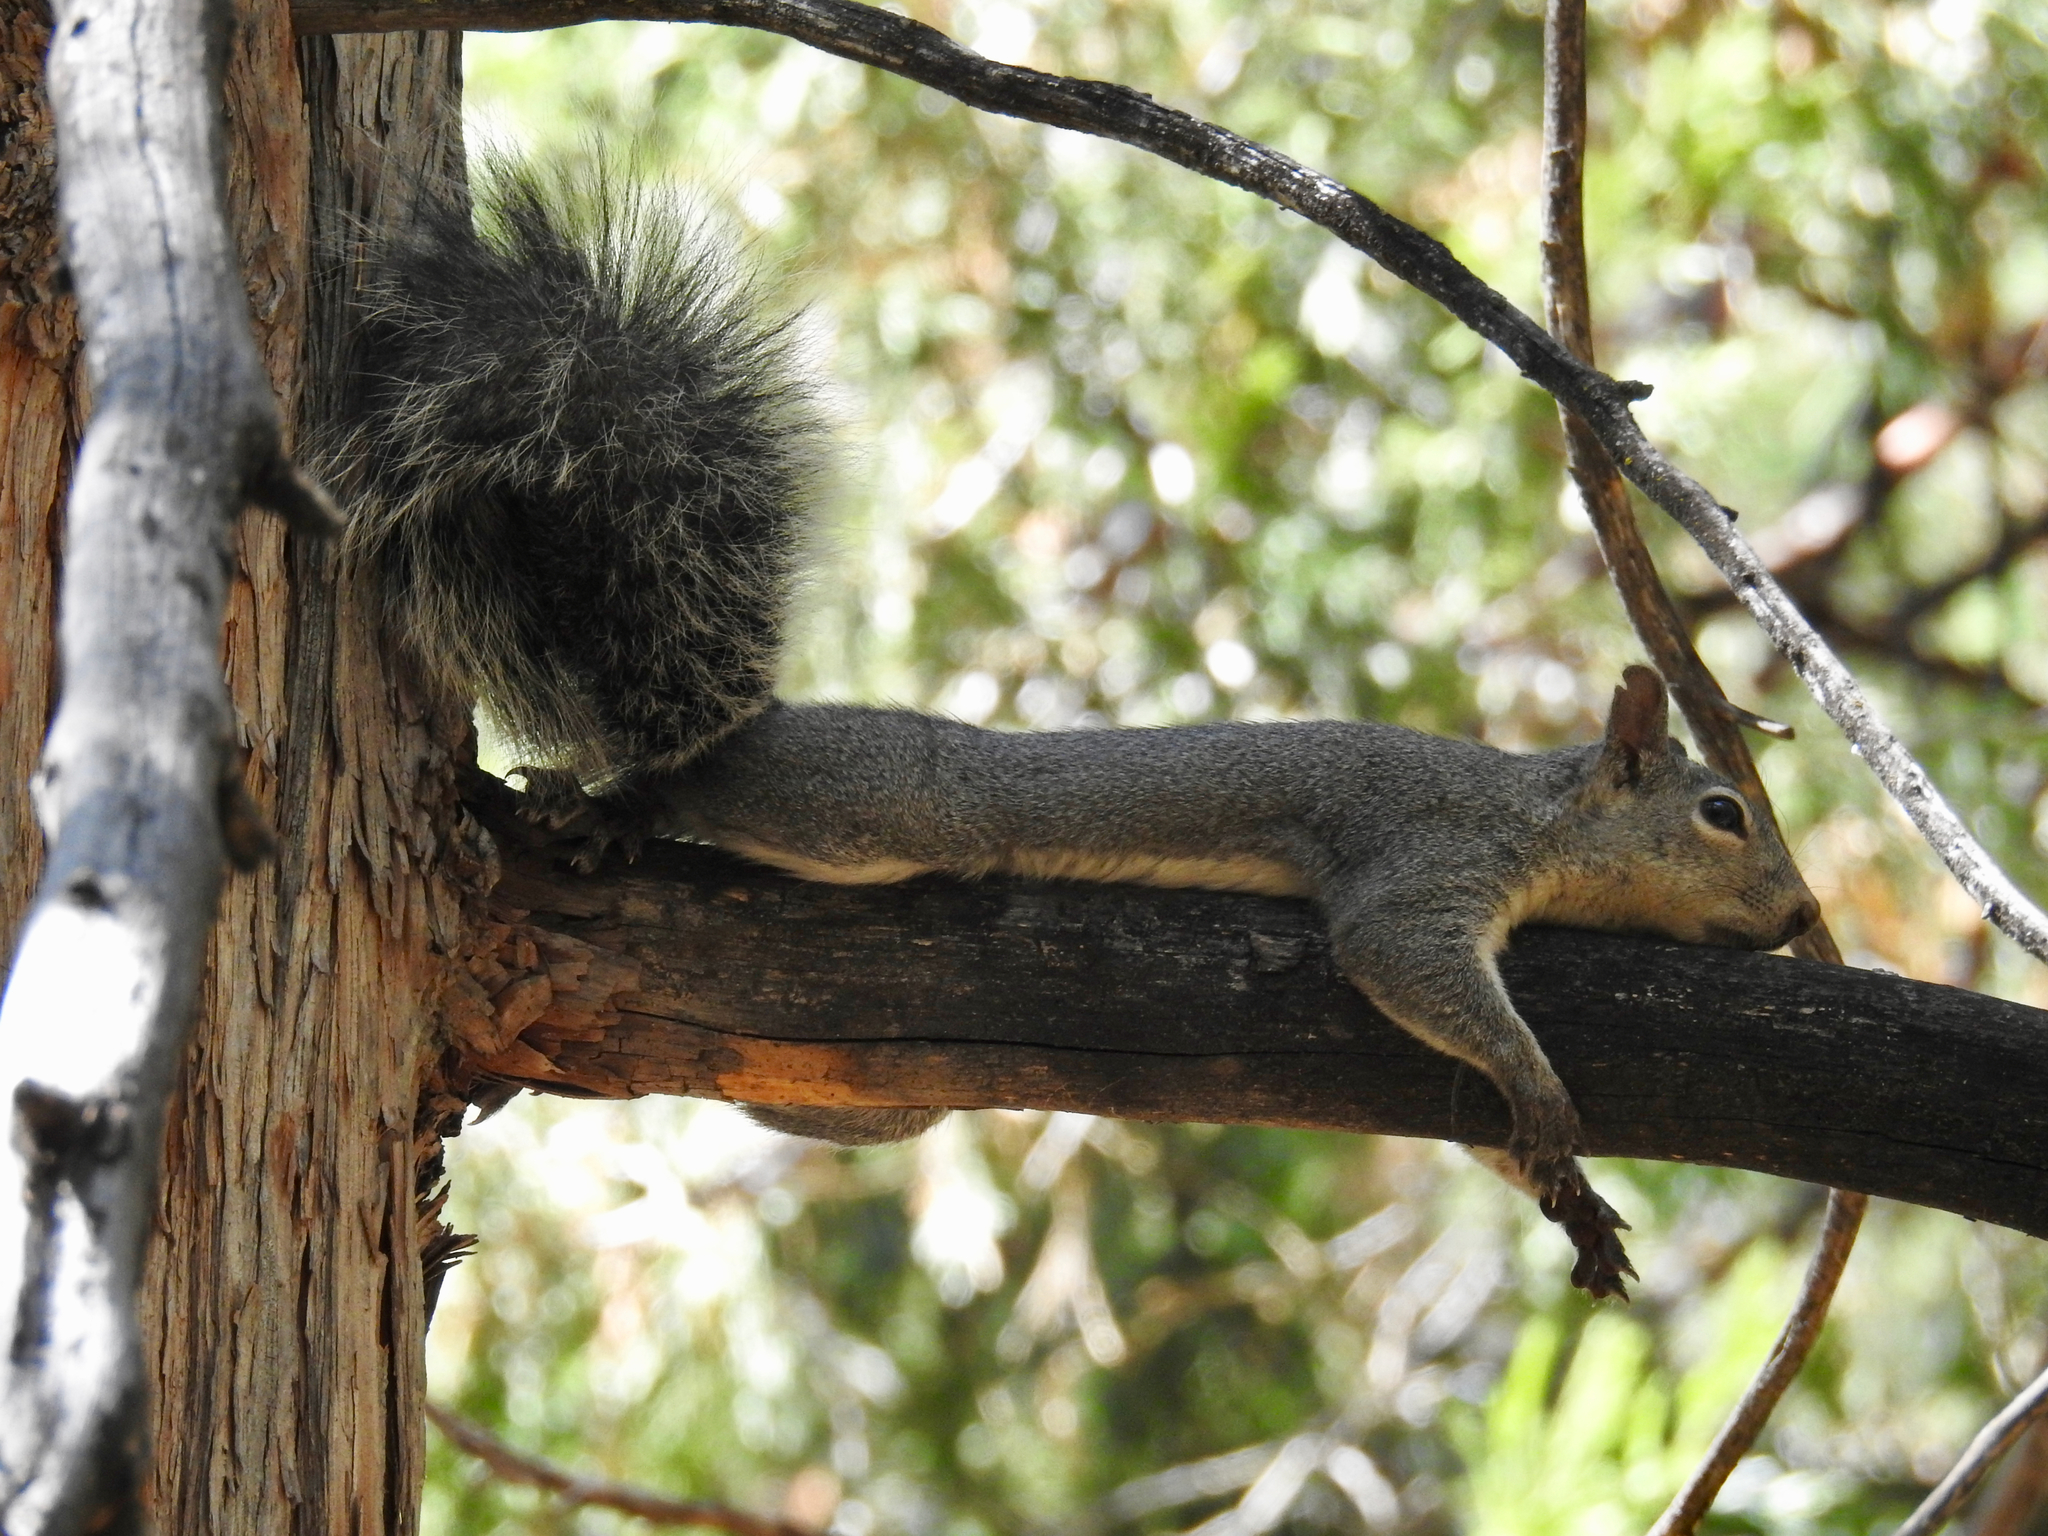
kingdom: Animalia
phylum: Chordata
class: Mammalia
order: Rodentia
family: Sciuridae
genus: Sciurus
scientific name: Sciurus griseus
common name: Western gray squirrel
